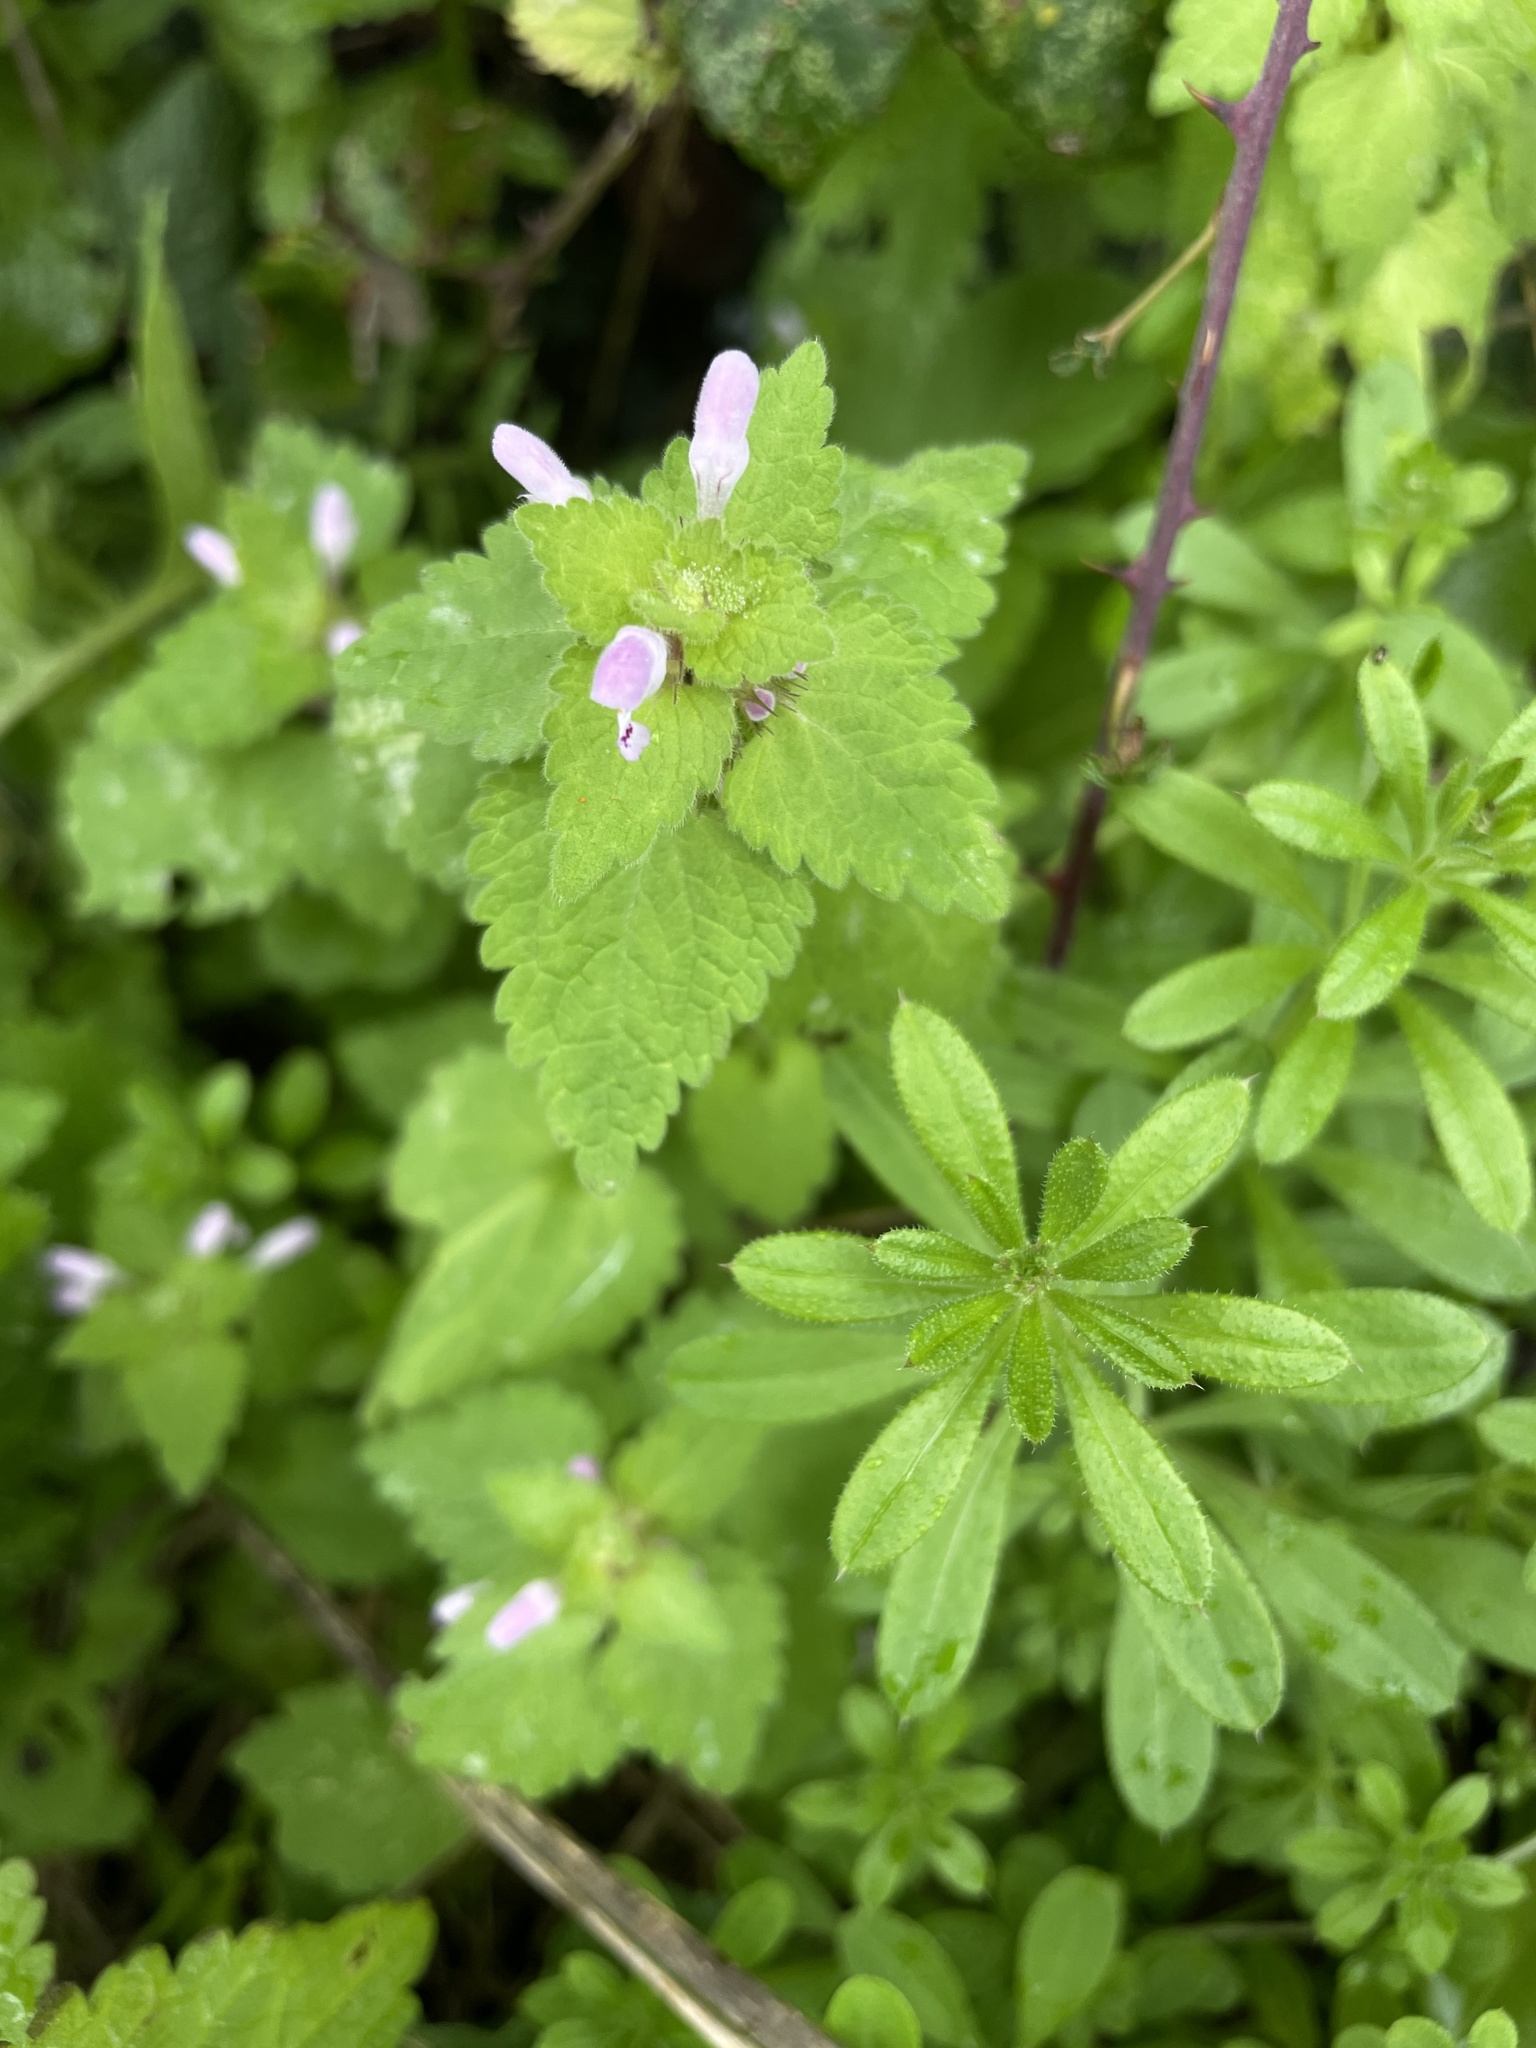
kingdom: Plantae
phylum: Tracheophyta
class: Magnoliopsida
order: Lamiales
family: Lamiaceae
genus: Lamium
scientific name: Lamium purpureum
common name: Red dead-nettle
